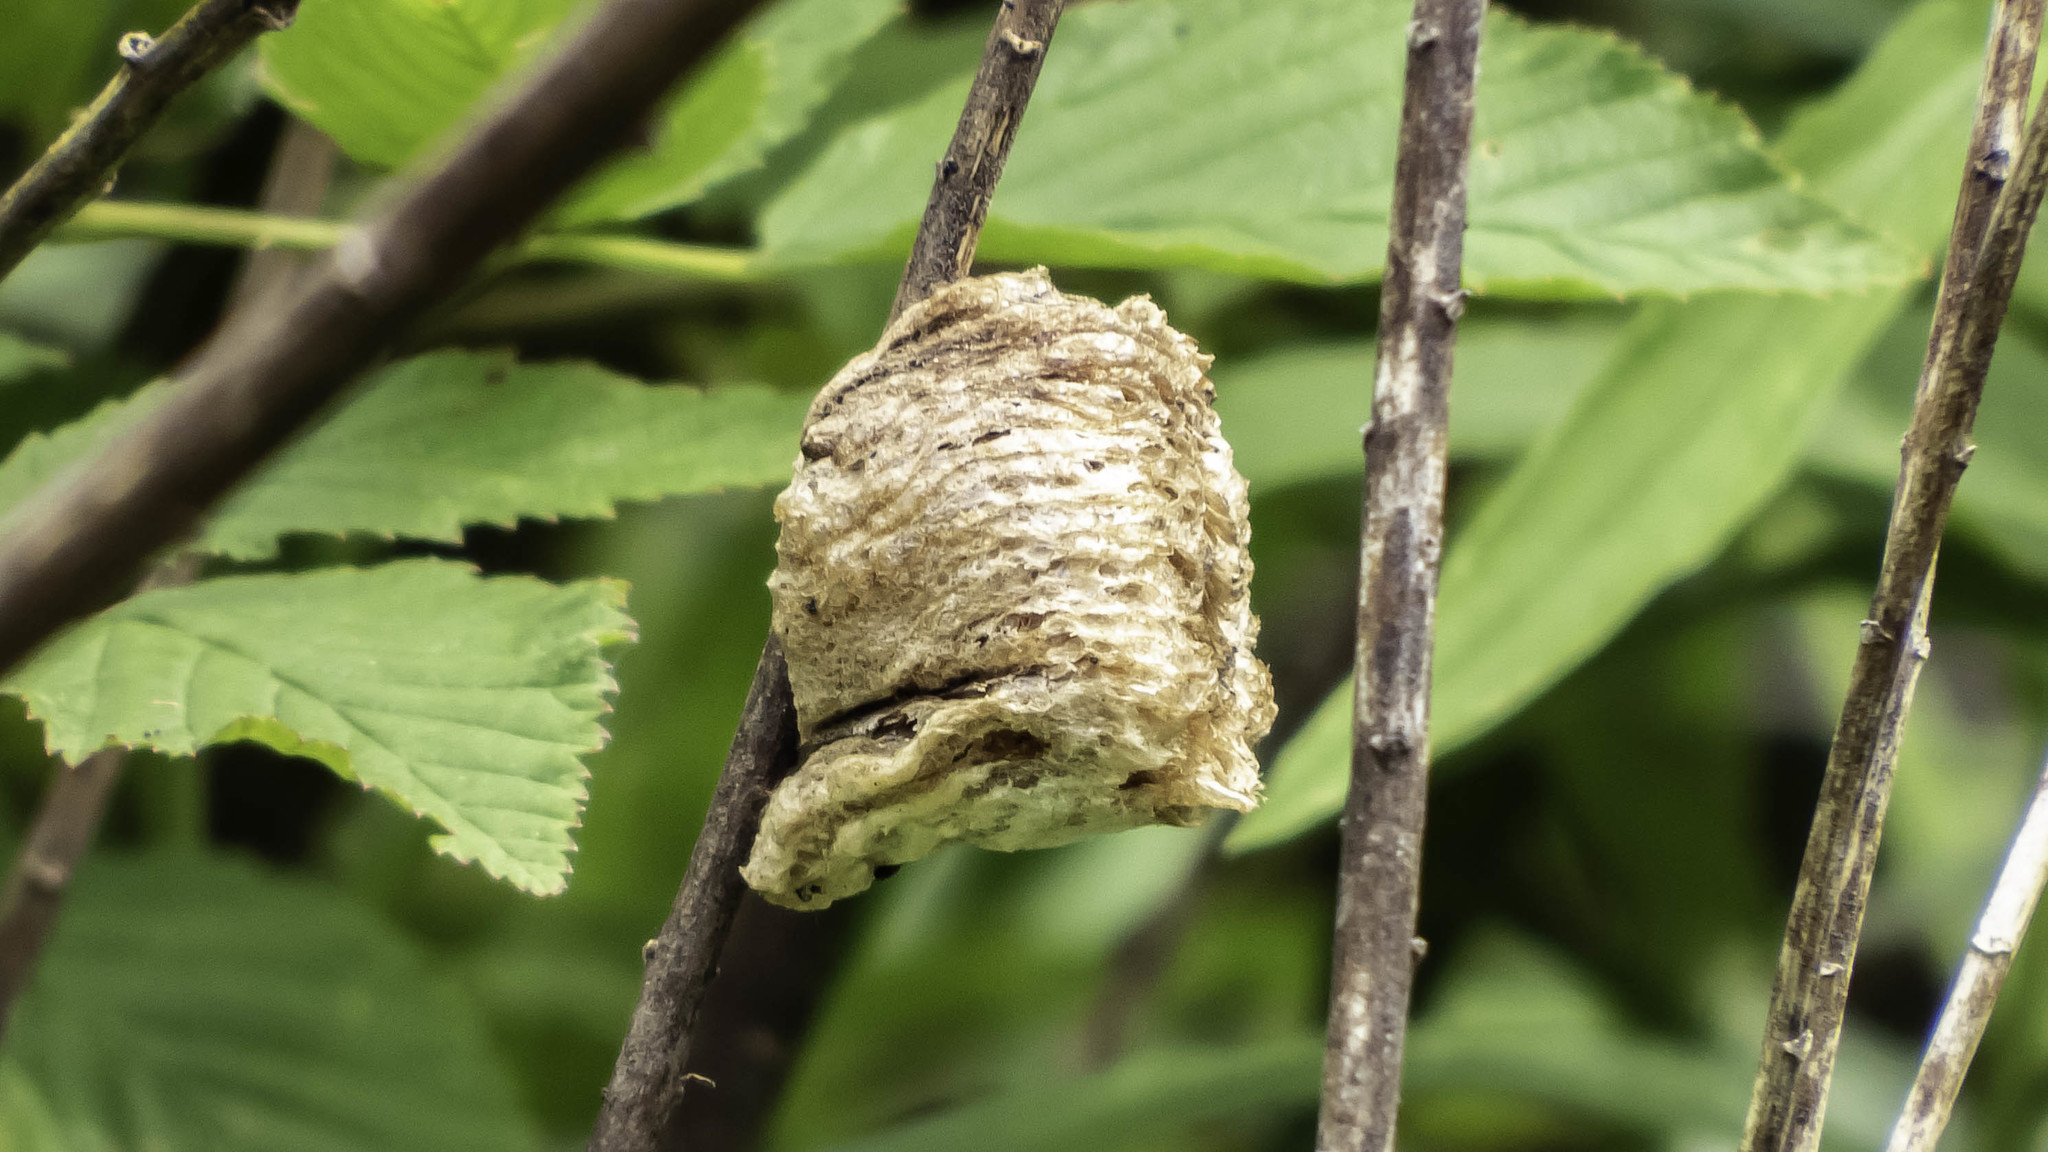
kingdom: Animalia
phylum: Arthropoda
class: Insecta
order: Mantodea
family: Mantidae
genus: Tenodera
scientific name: Tenodera sinensis
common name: Chinese mantis
